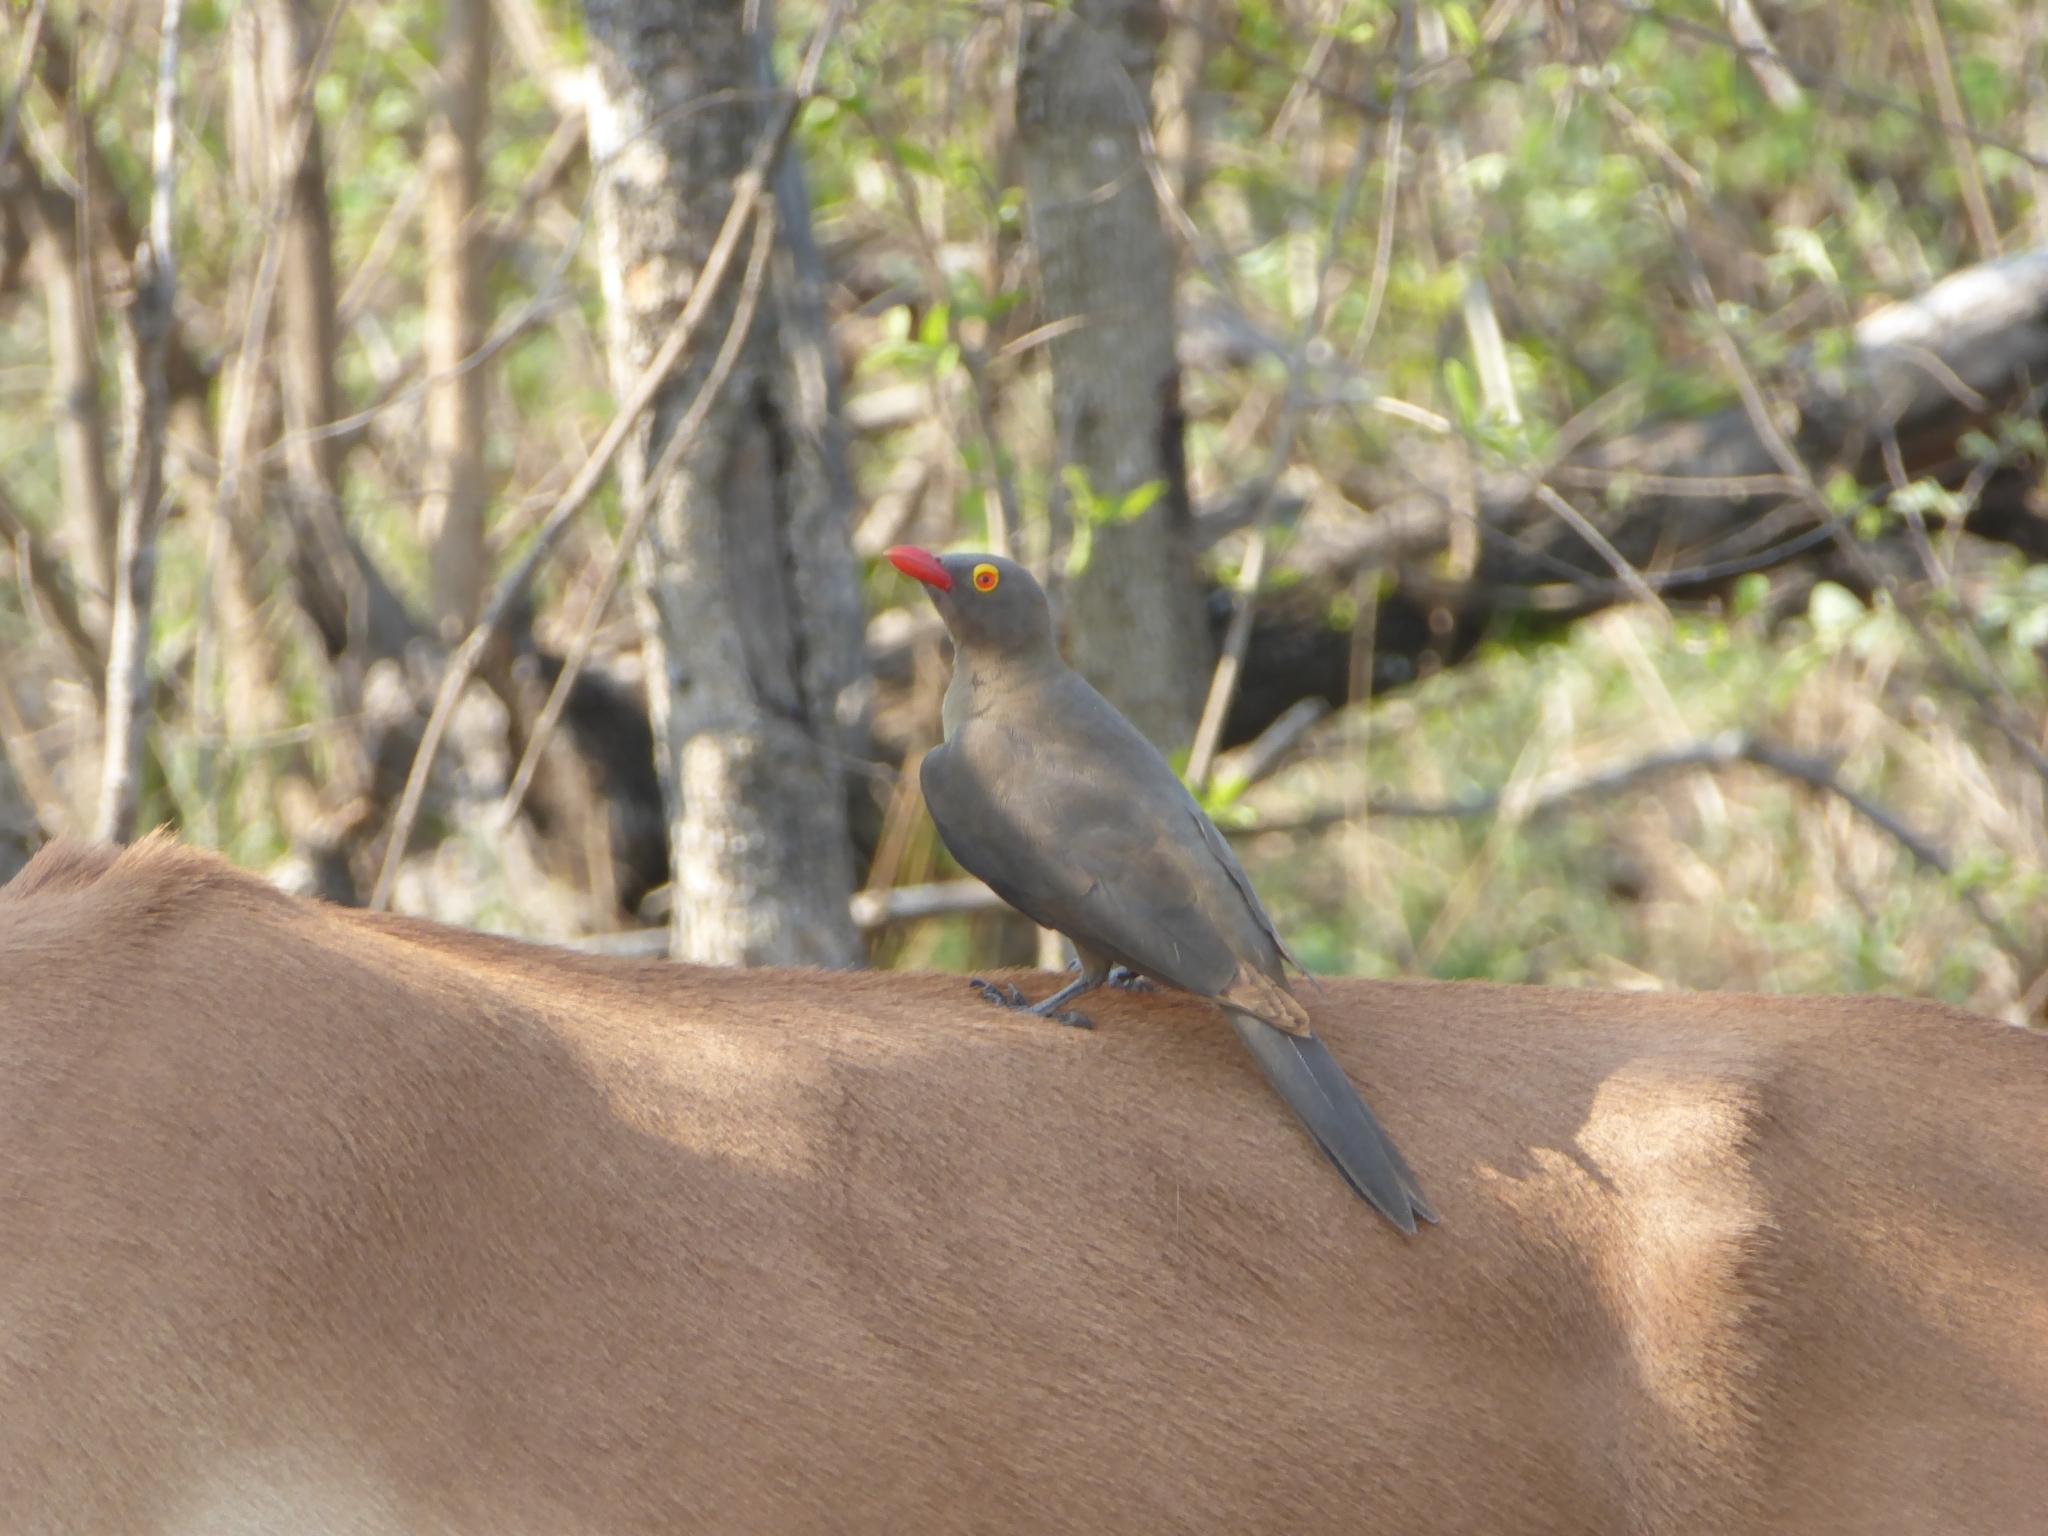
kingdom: Animalia
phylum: Chordata
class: Aves
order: Passeriformes
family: Buphagidae
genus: Buphagus
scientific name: Buphagus erythrorhynchus
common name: Red-billed oxpecker
